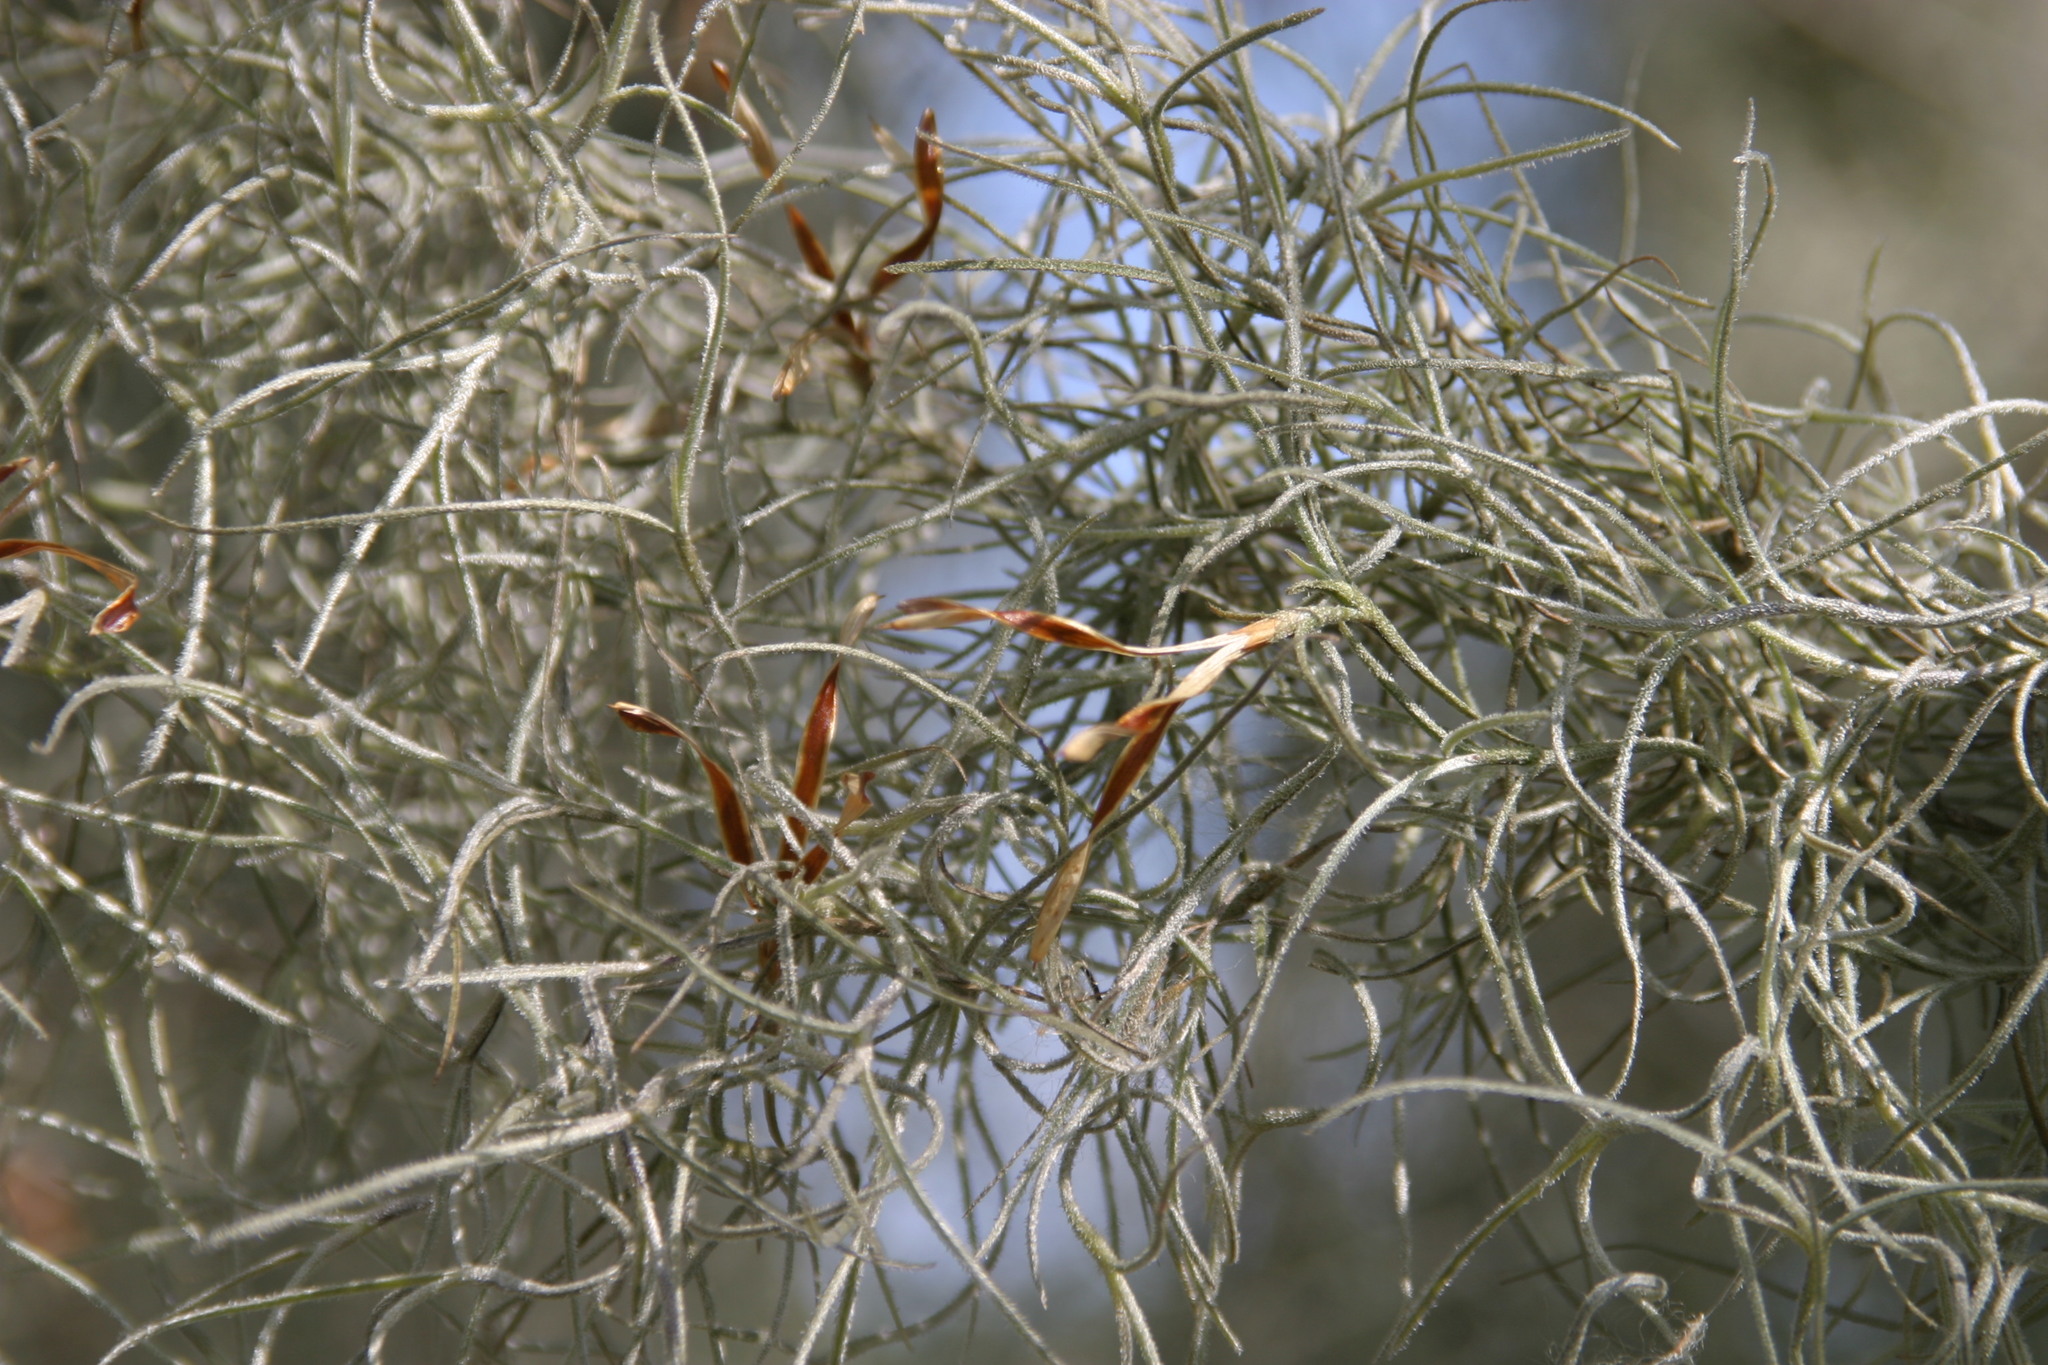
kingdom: Plantae
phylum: Tracheophyta
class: Liliopsida
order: Poales
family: Bromeliaceae
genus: Tillandsia
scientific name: Tillandsia usneoides
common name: Spanish moss
